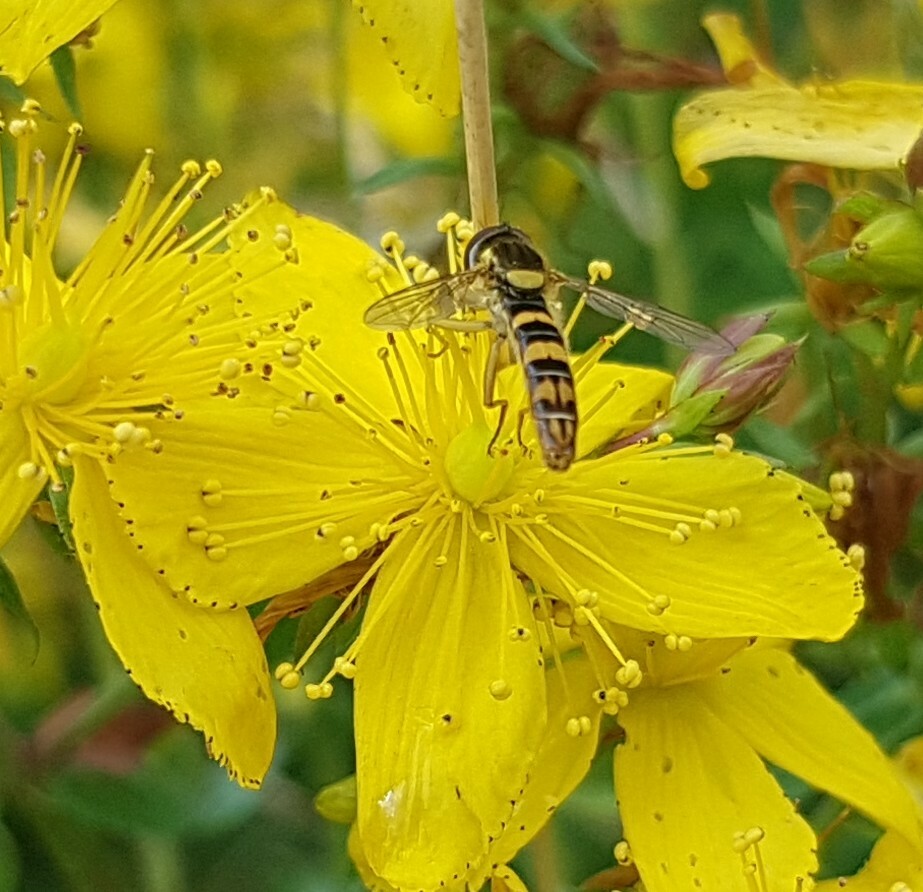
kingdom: Animalia
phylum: Arthropoda
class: Insecta
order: Diptera
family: Syrphidae
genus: Sphaerophoria
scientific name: Sphaerophoria
